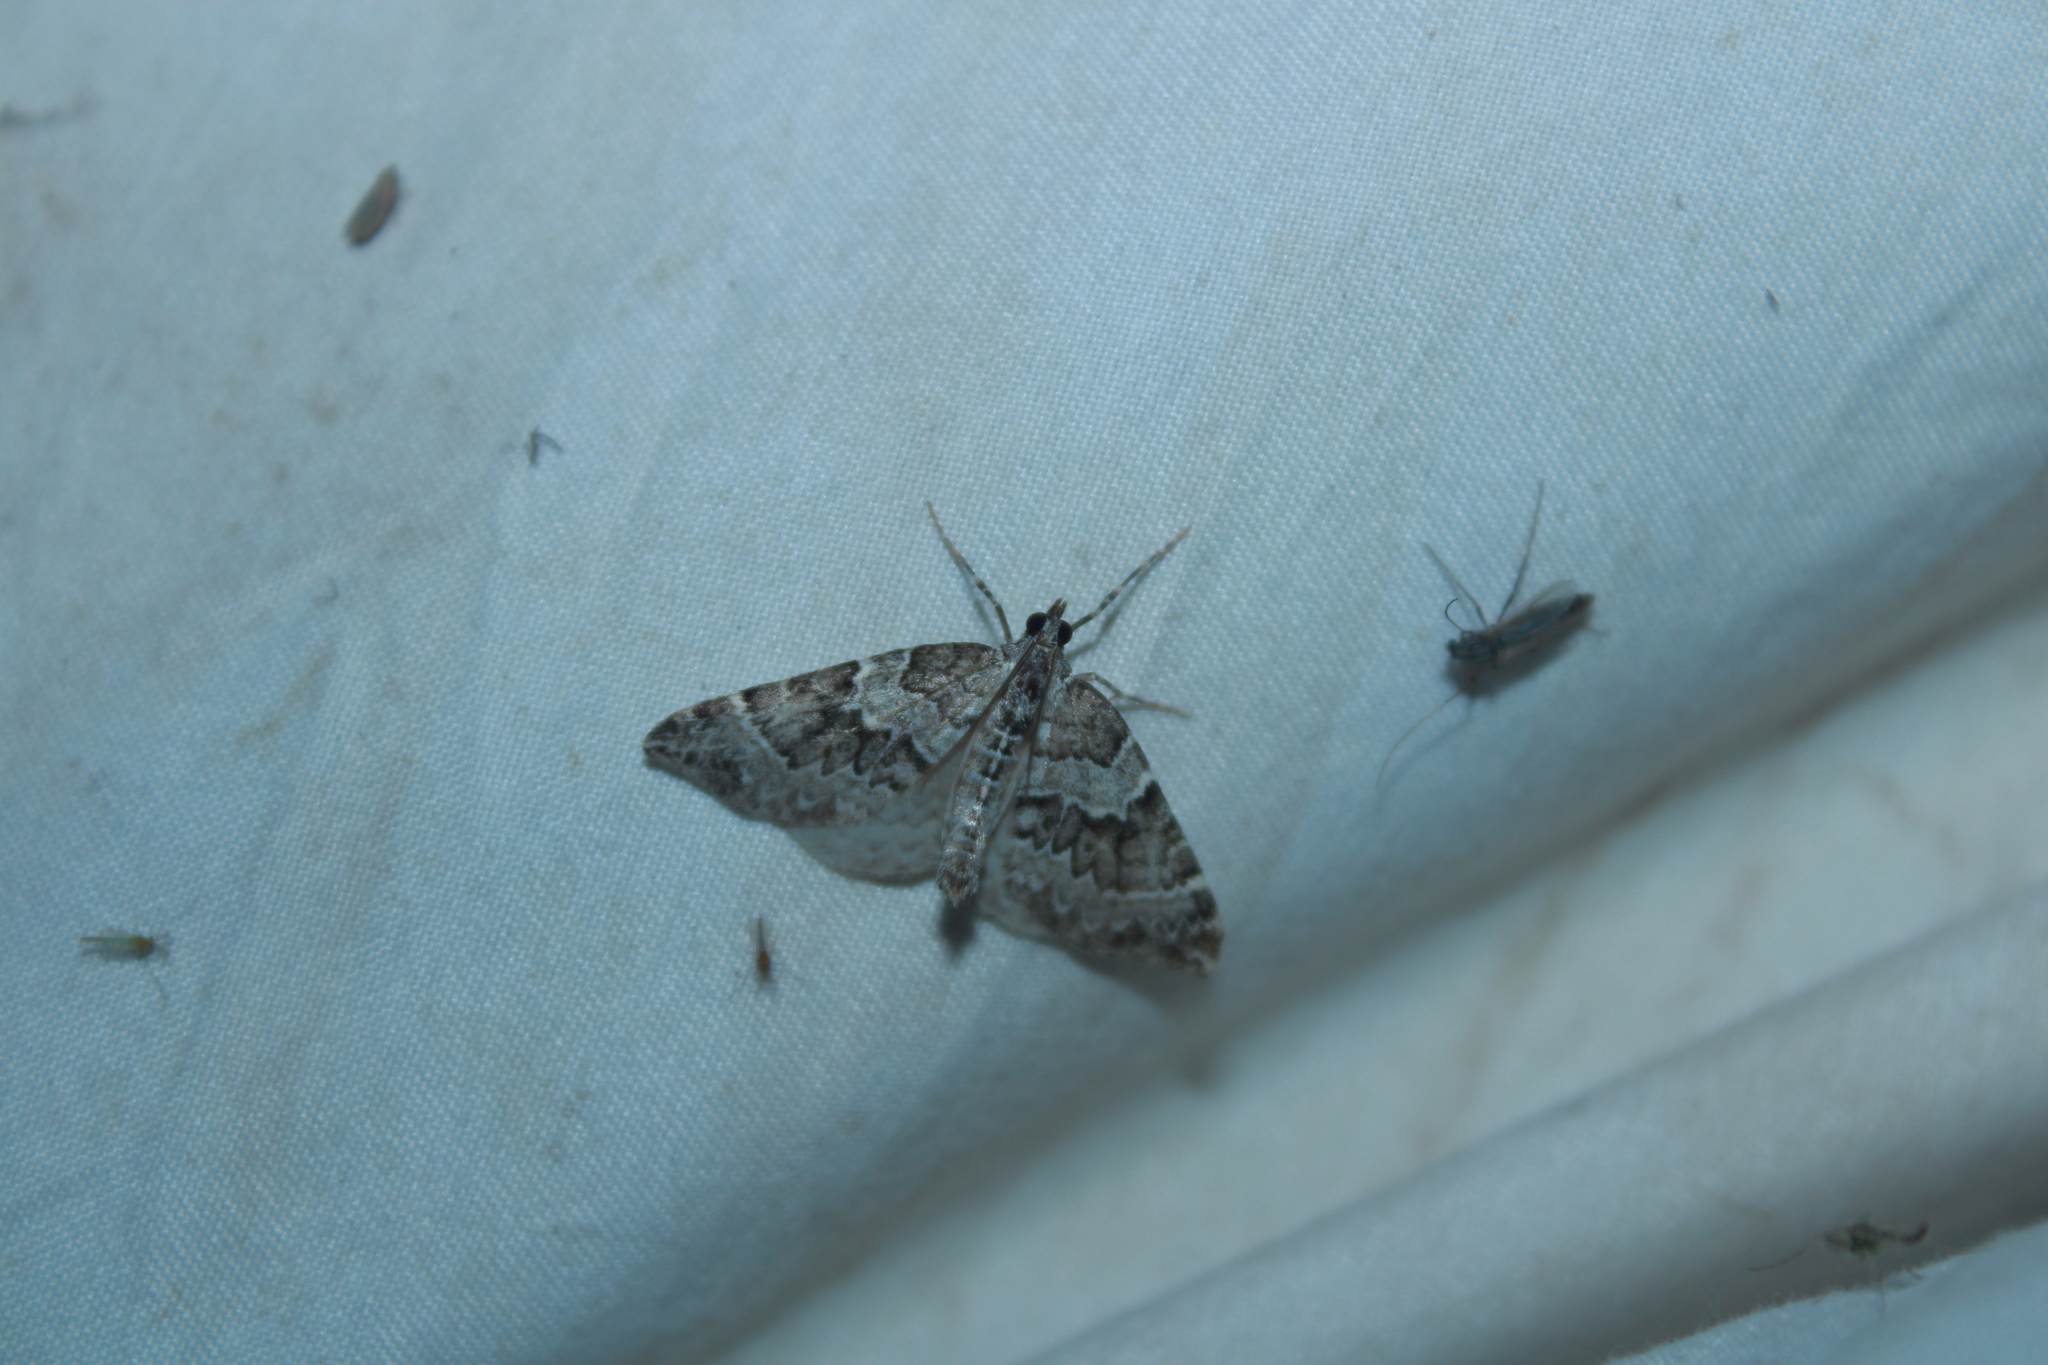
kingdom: Animalia
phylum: Arthropoda
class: Insecta
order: Lepidoptera
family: Geometridae
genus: Eulithis
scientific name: Eulithis explanata
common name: White eulithis
